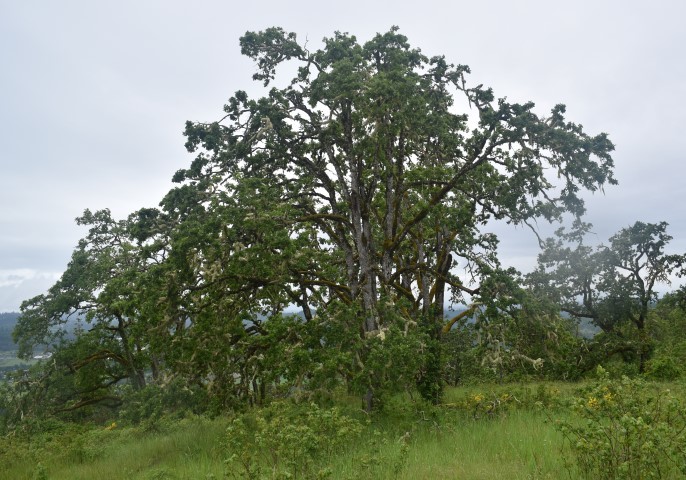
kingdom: Plantae
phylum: Tracheophyta
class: Magnoliopsida
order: Fagales
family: Fagaceae
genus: Quercus
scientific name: Quercus garryana
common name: Garry oak
